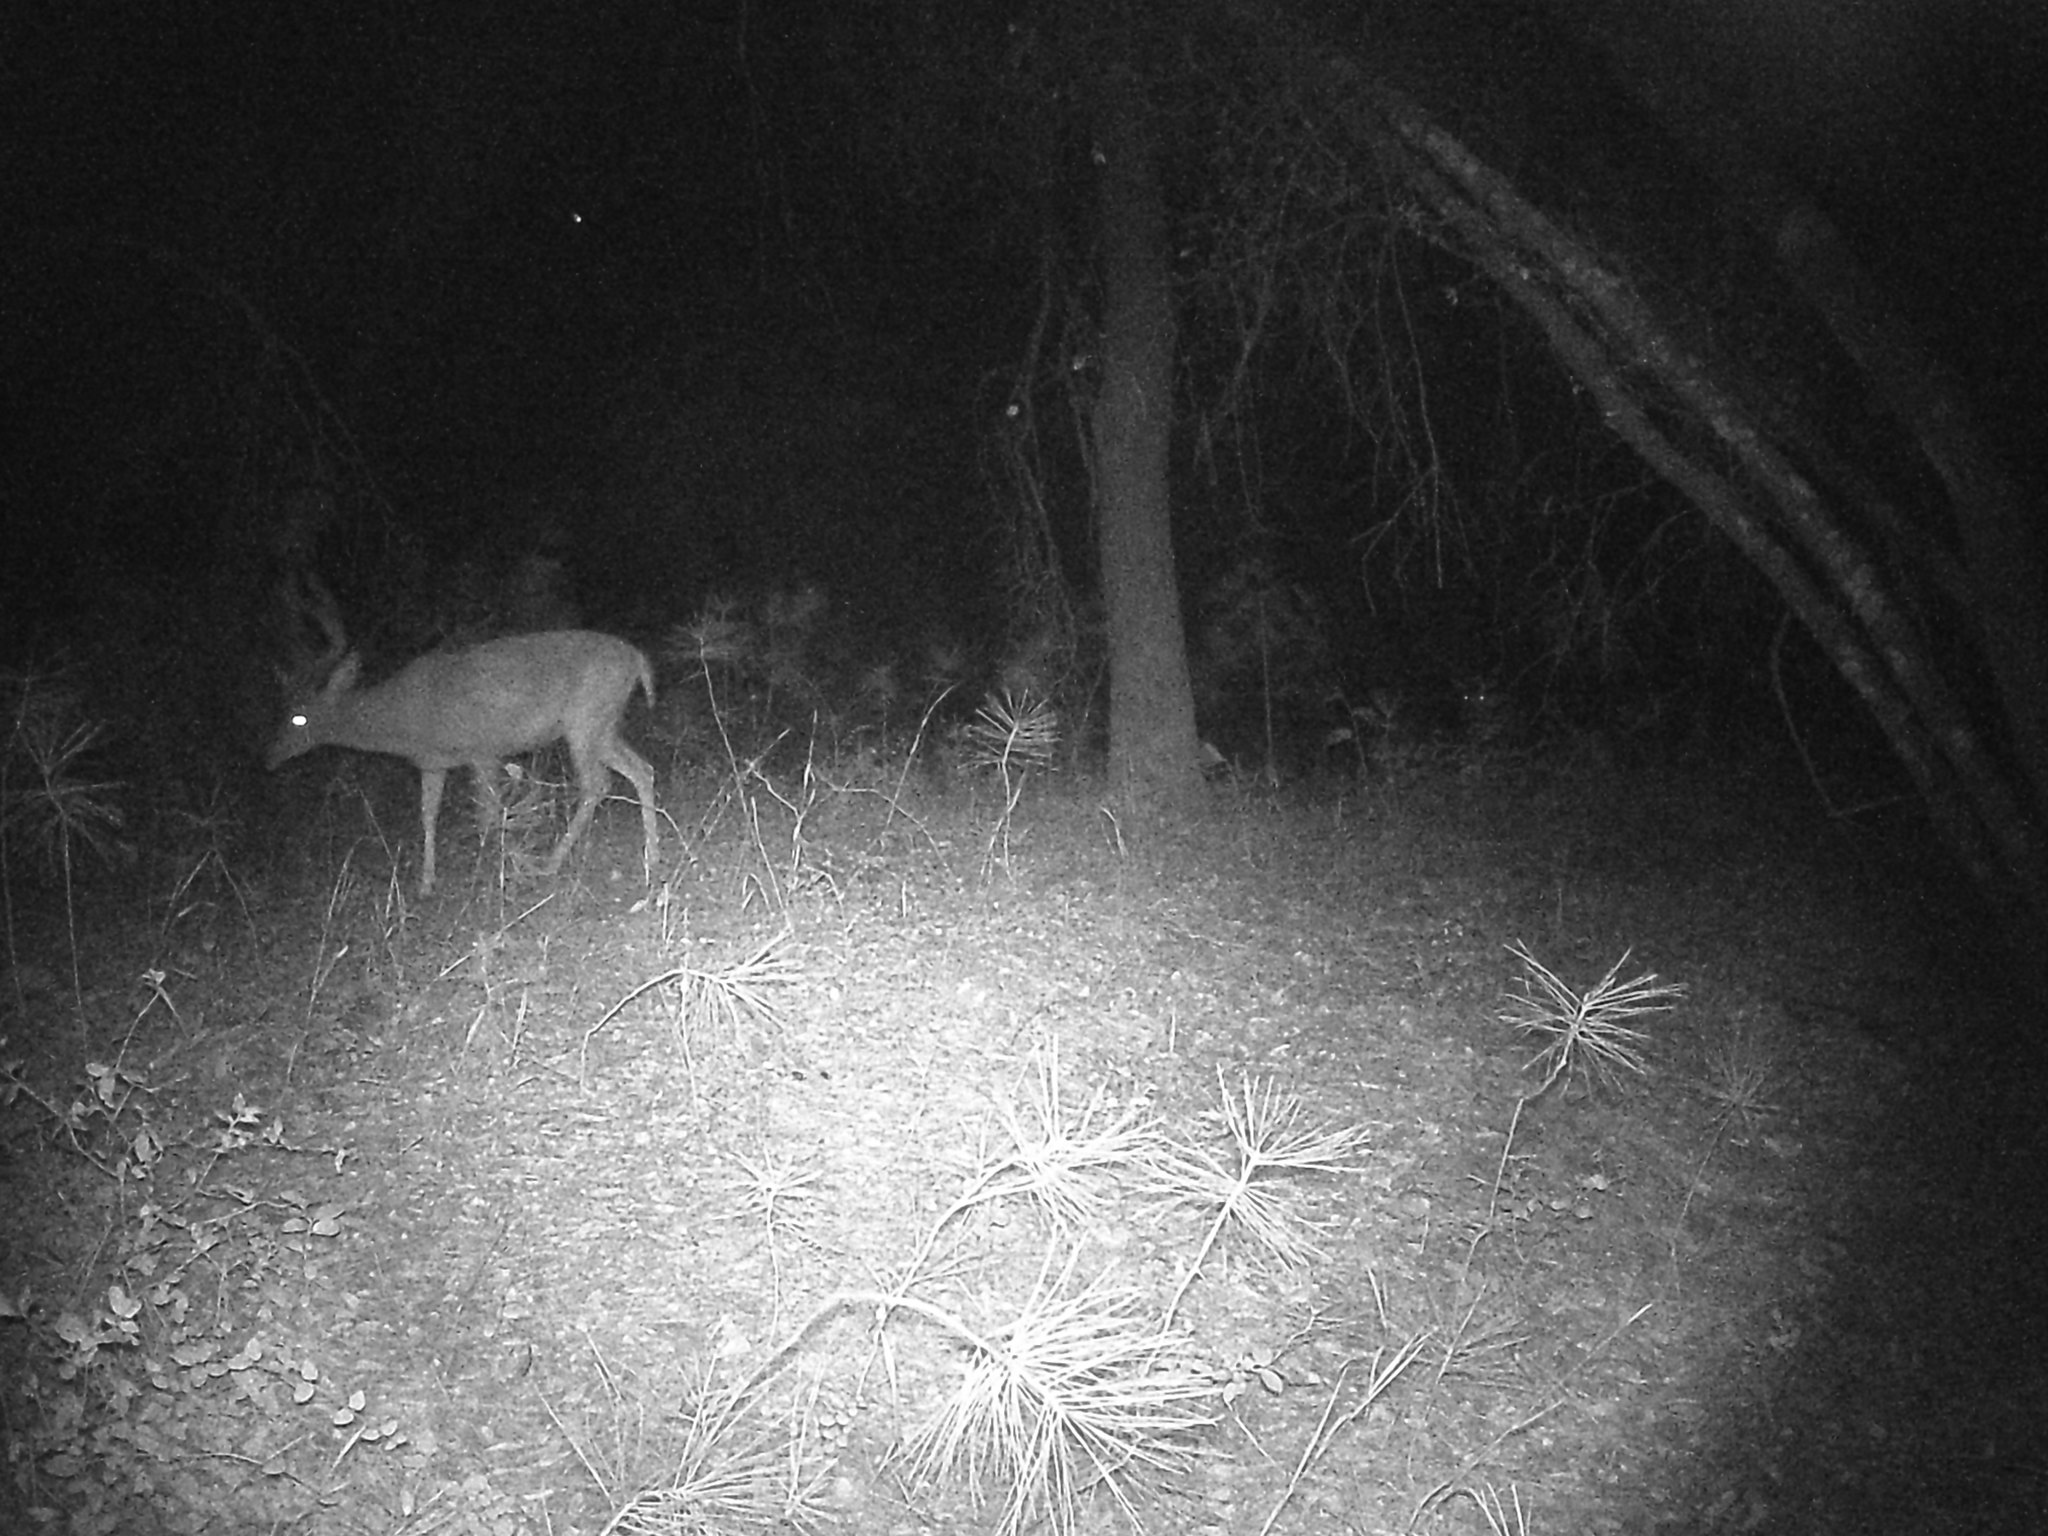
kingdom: Animalia
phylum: Chordata
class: Mammalia
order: Artiodactyla
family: Cervidae
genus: Odocoileus
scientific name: Odocoileus hemionus
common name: Mule deer
